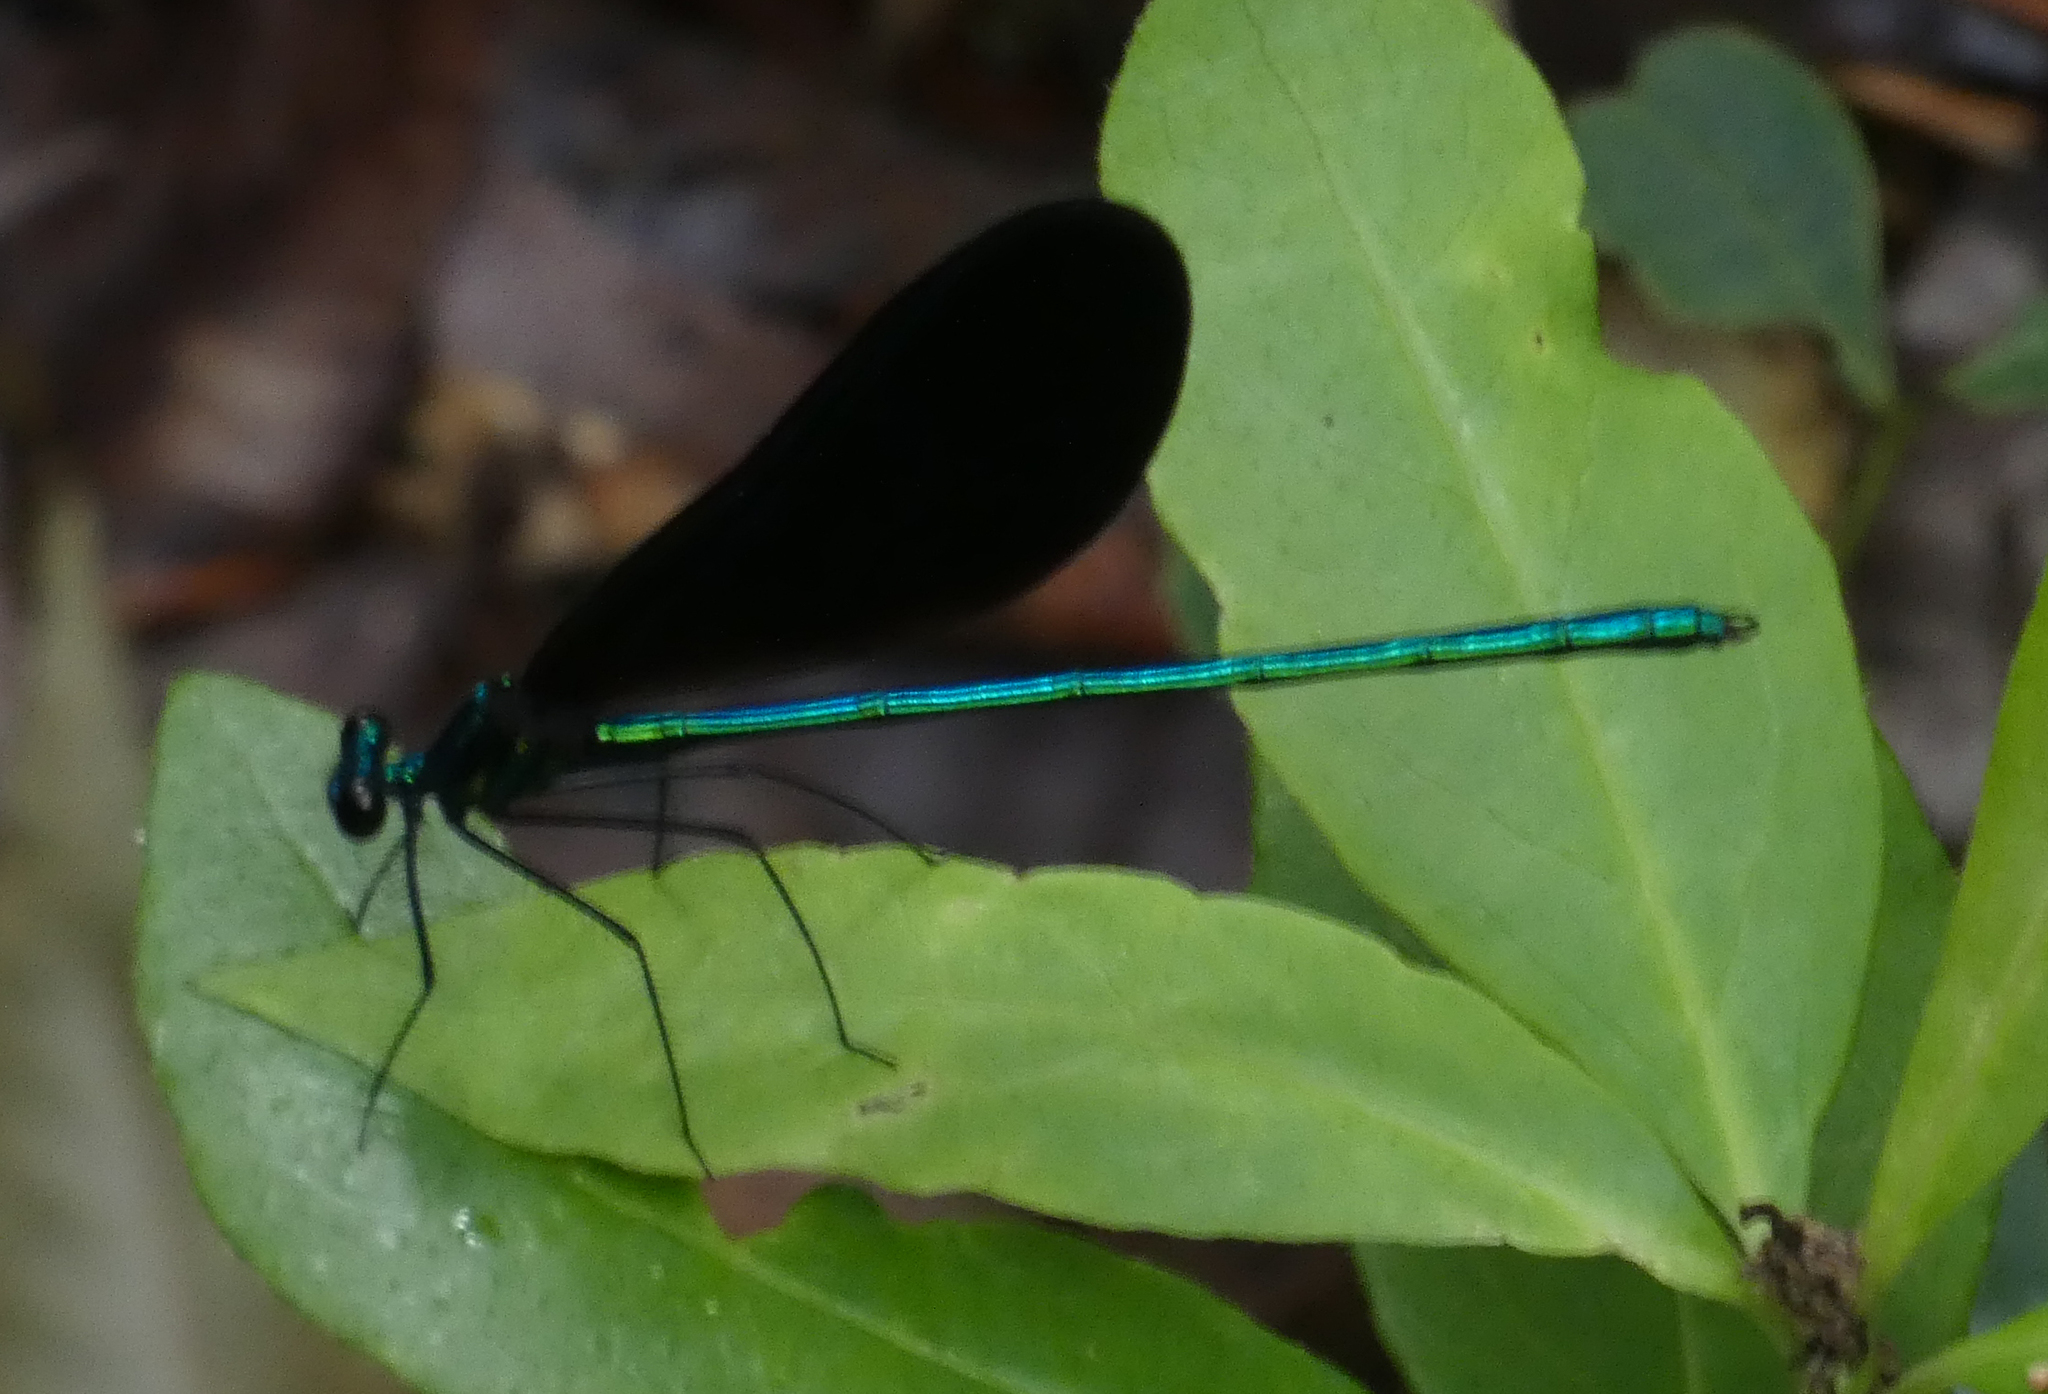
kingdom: Animalia
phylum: Arthropoda
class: Insecta
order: Odonata
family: Calopterygidae
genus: Calopteryx
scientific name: Calopteryx maculata
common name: Ebony jewelwing
